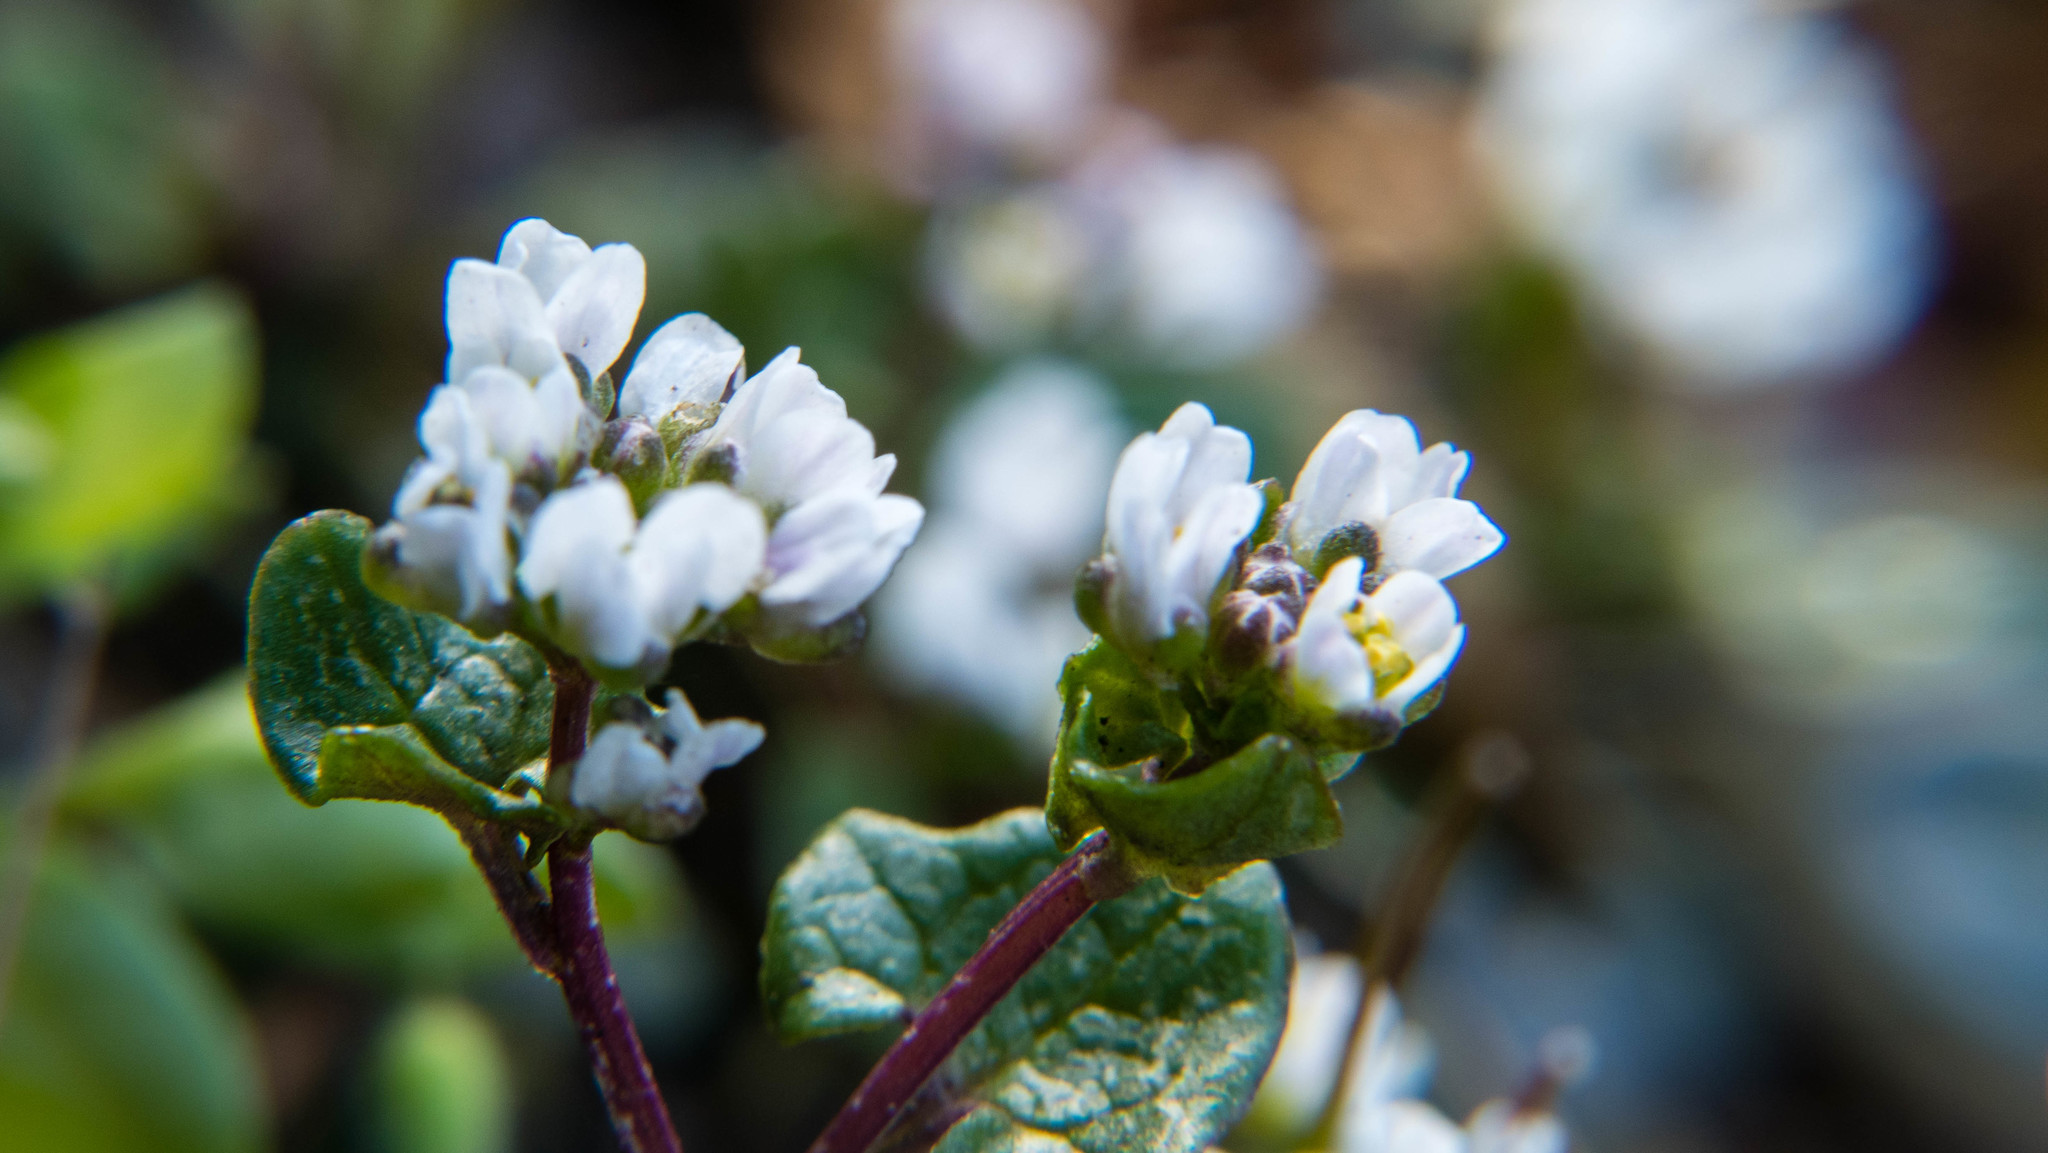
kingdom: Plantae
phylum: Tracheophyta
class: Magnoliopsida
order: Brassicales
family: Brassicaceae
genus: Cochlearia
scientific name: Cochlearia danica
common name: Early scurvygrass
